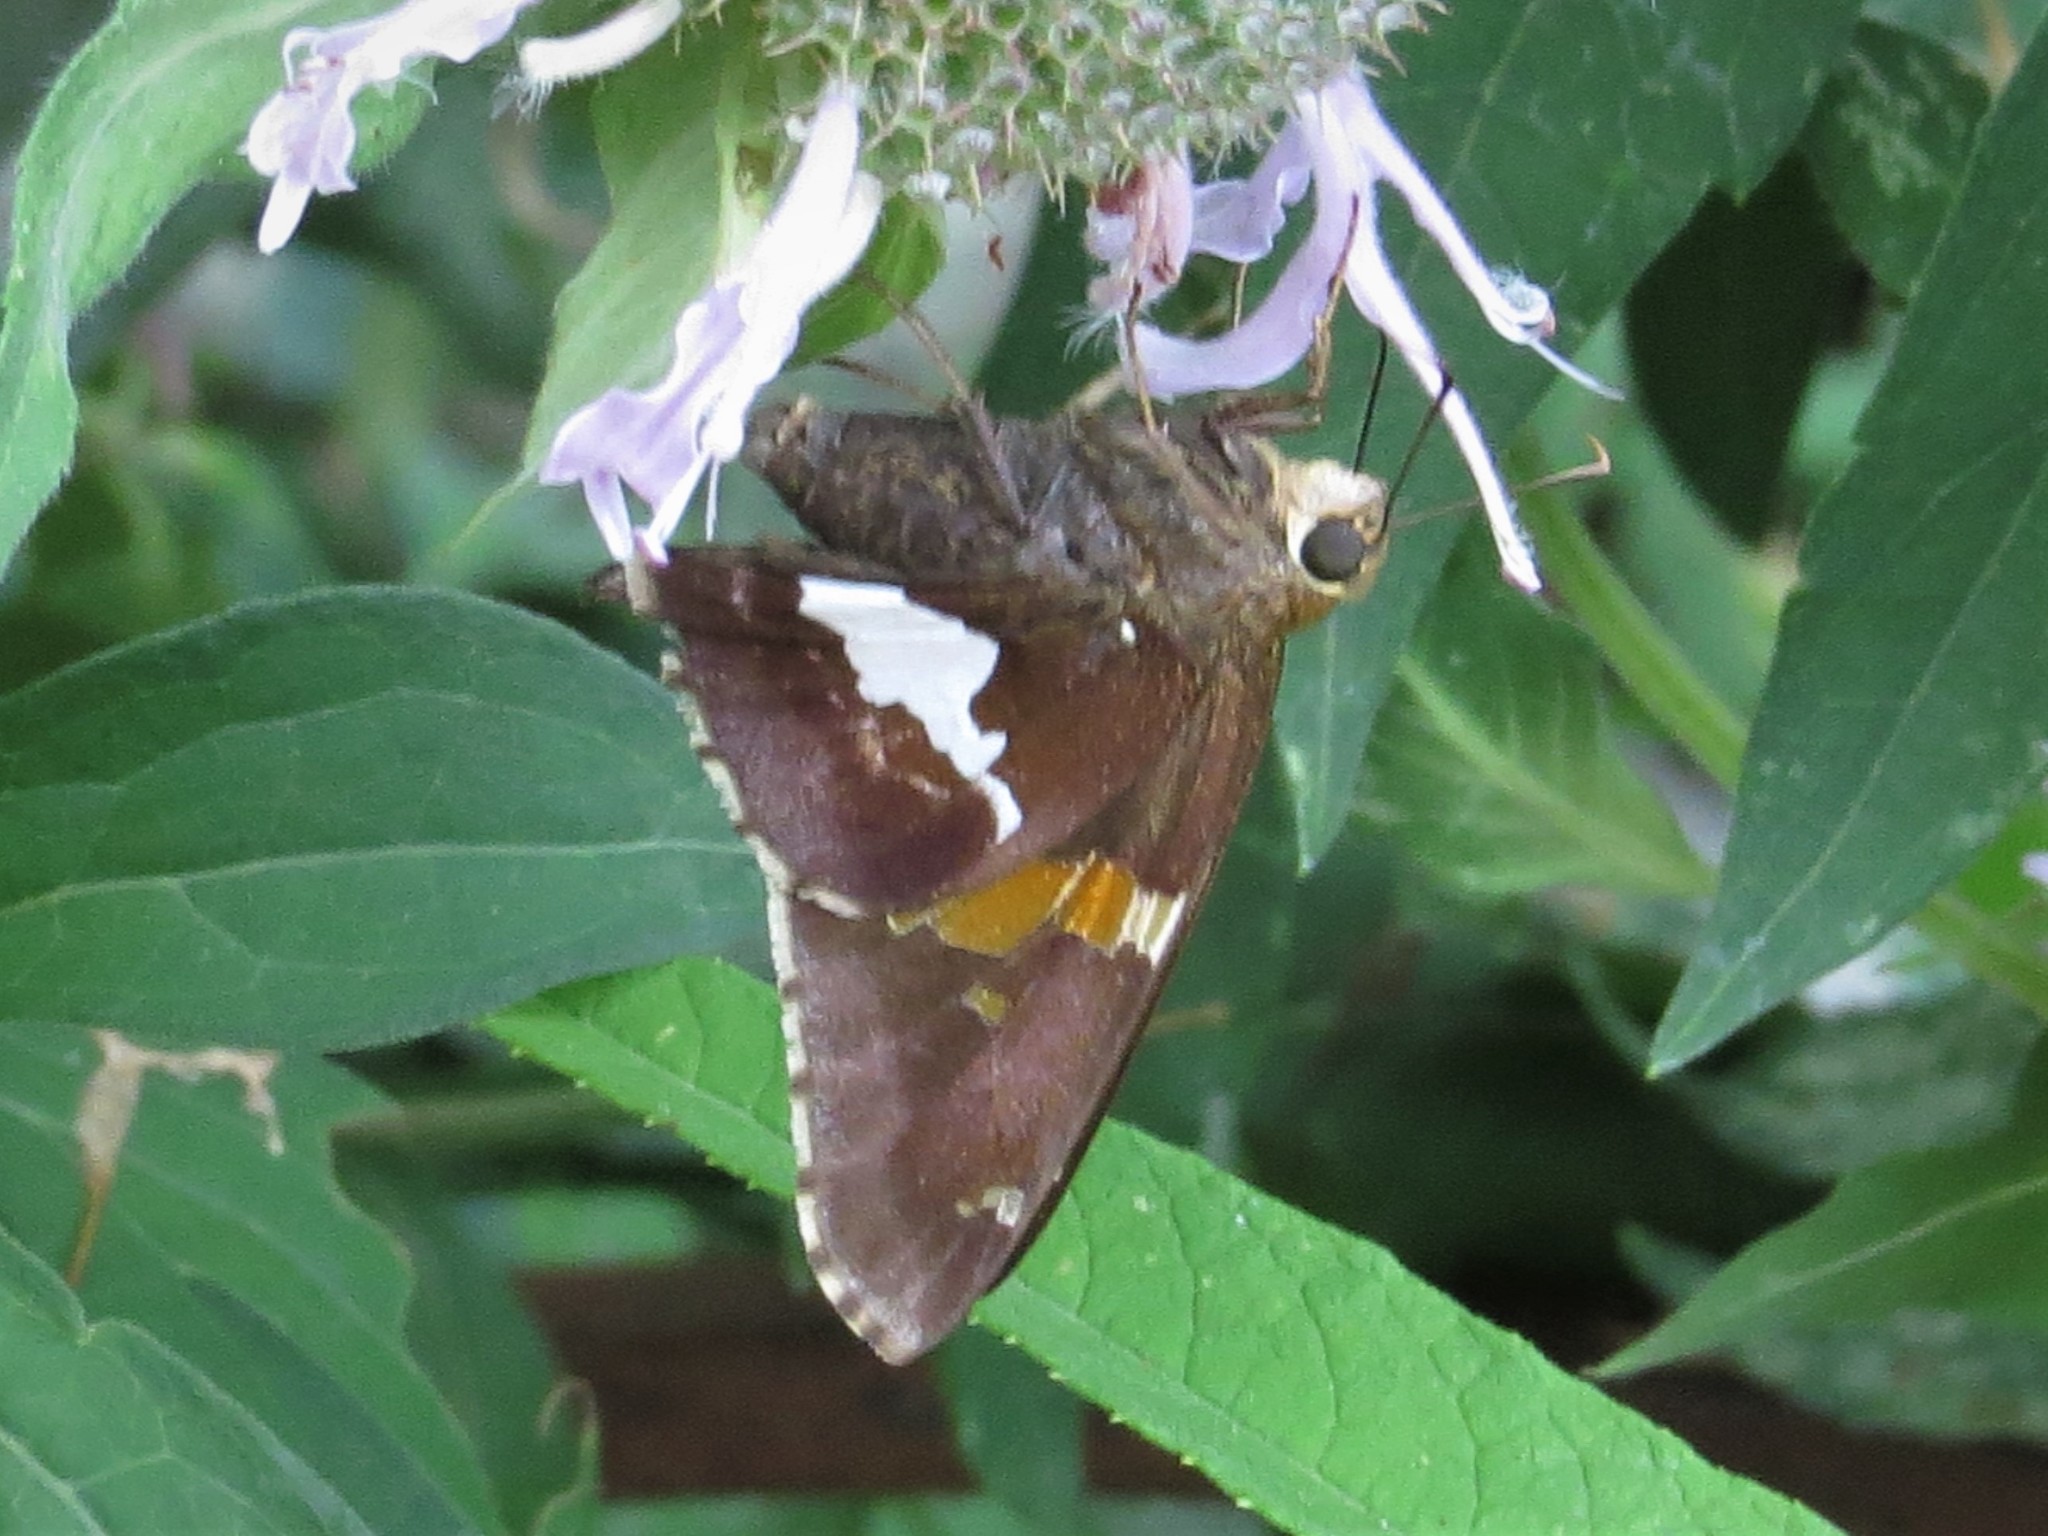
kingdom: Animalia
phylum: Arthropoda
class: Insecta
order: Lepidoptera
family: Hesperiidae
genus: Epargyreus
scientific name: Epargyreus clarus
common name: Silver-spotted skipper
